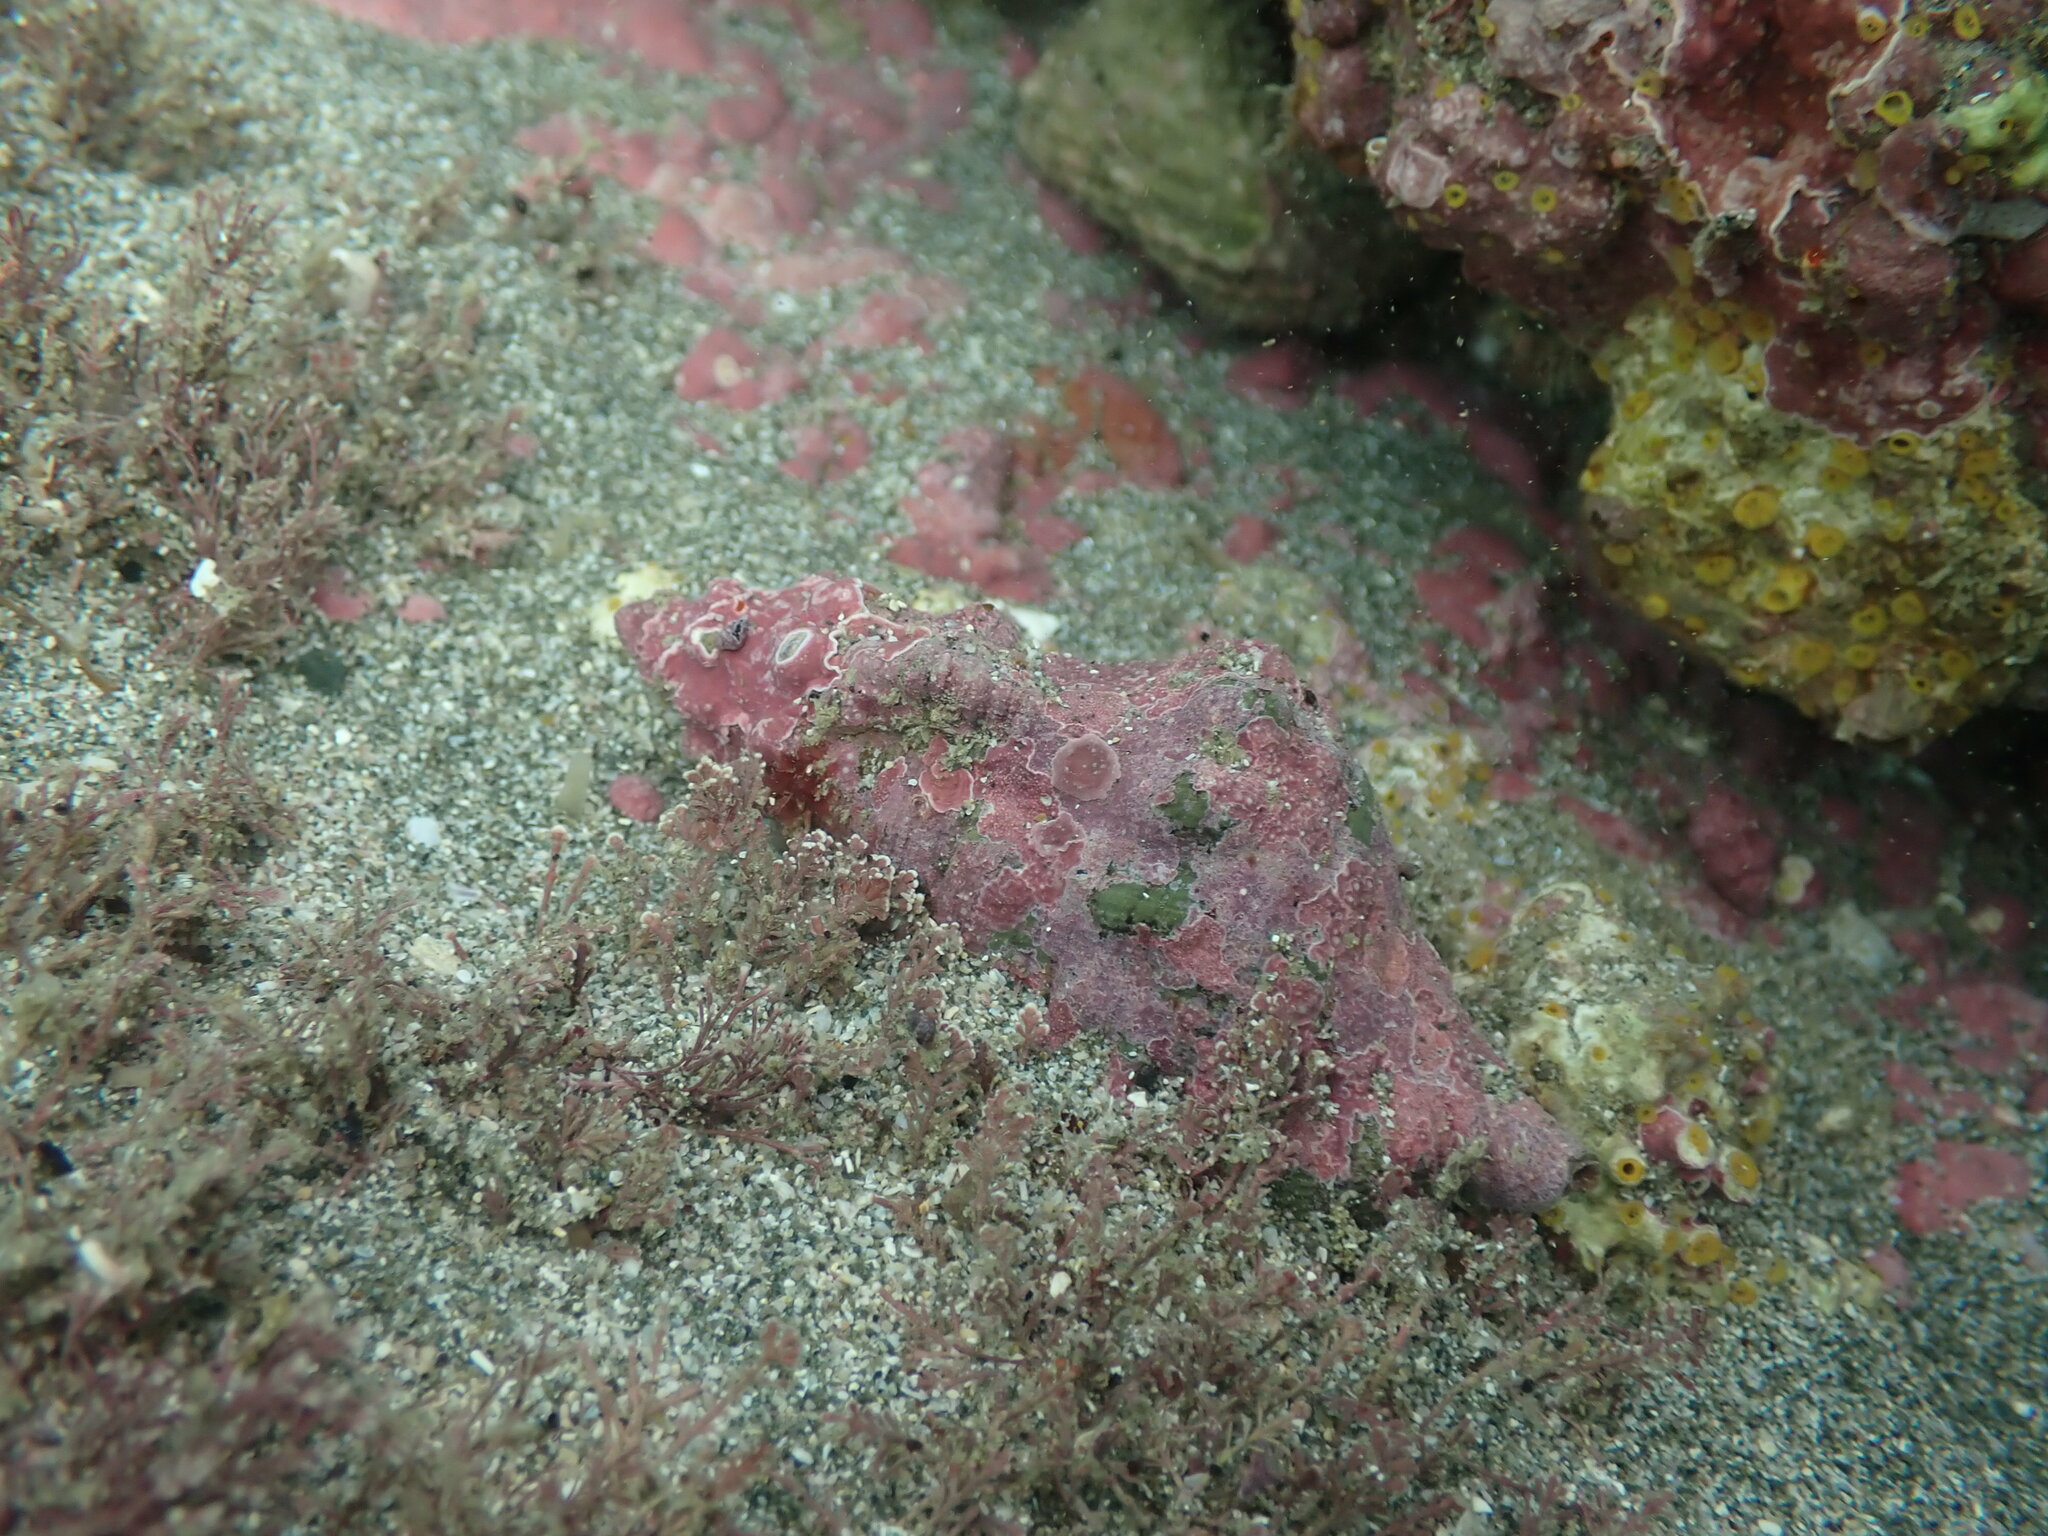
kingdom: Animalia
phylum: Mollusca
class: Gastropoda
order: Littorinimorpha
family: Cymatiidae
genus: Cabestana
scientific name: Cabestana spengleri
